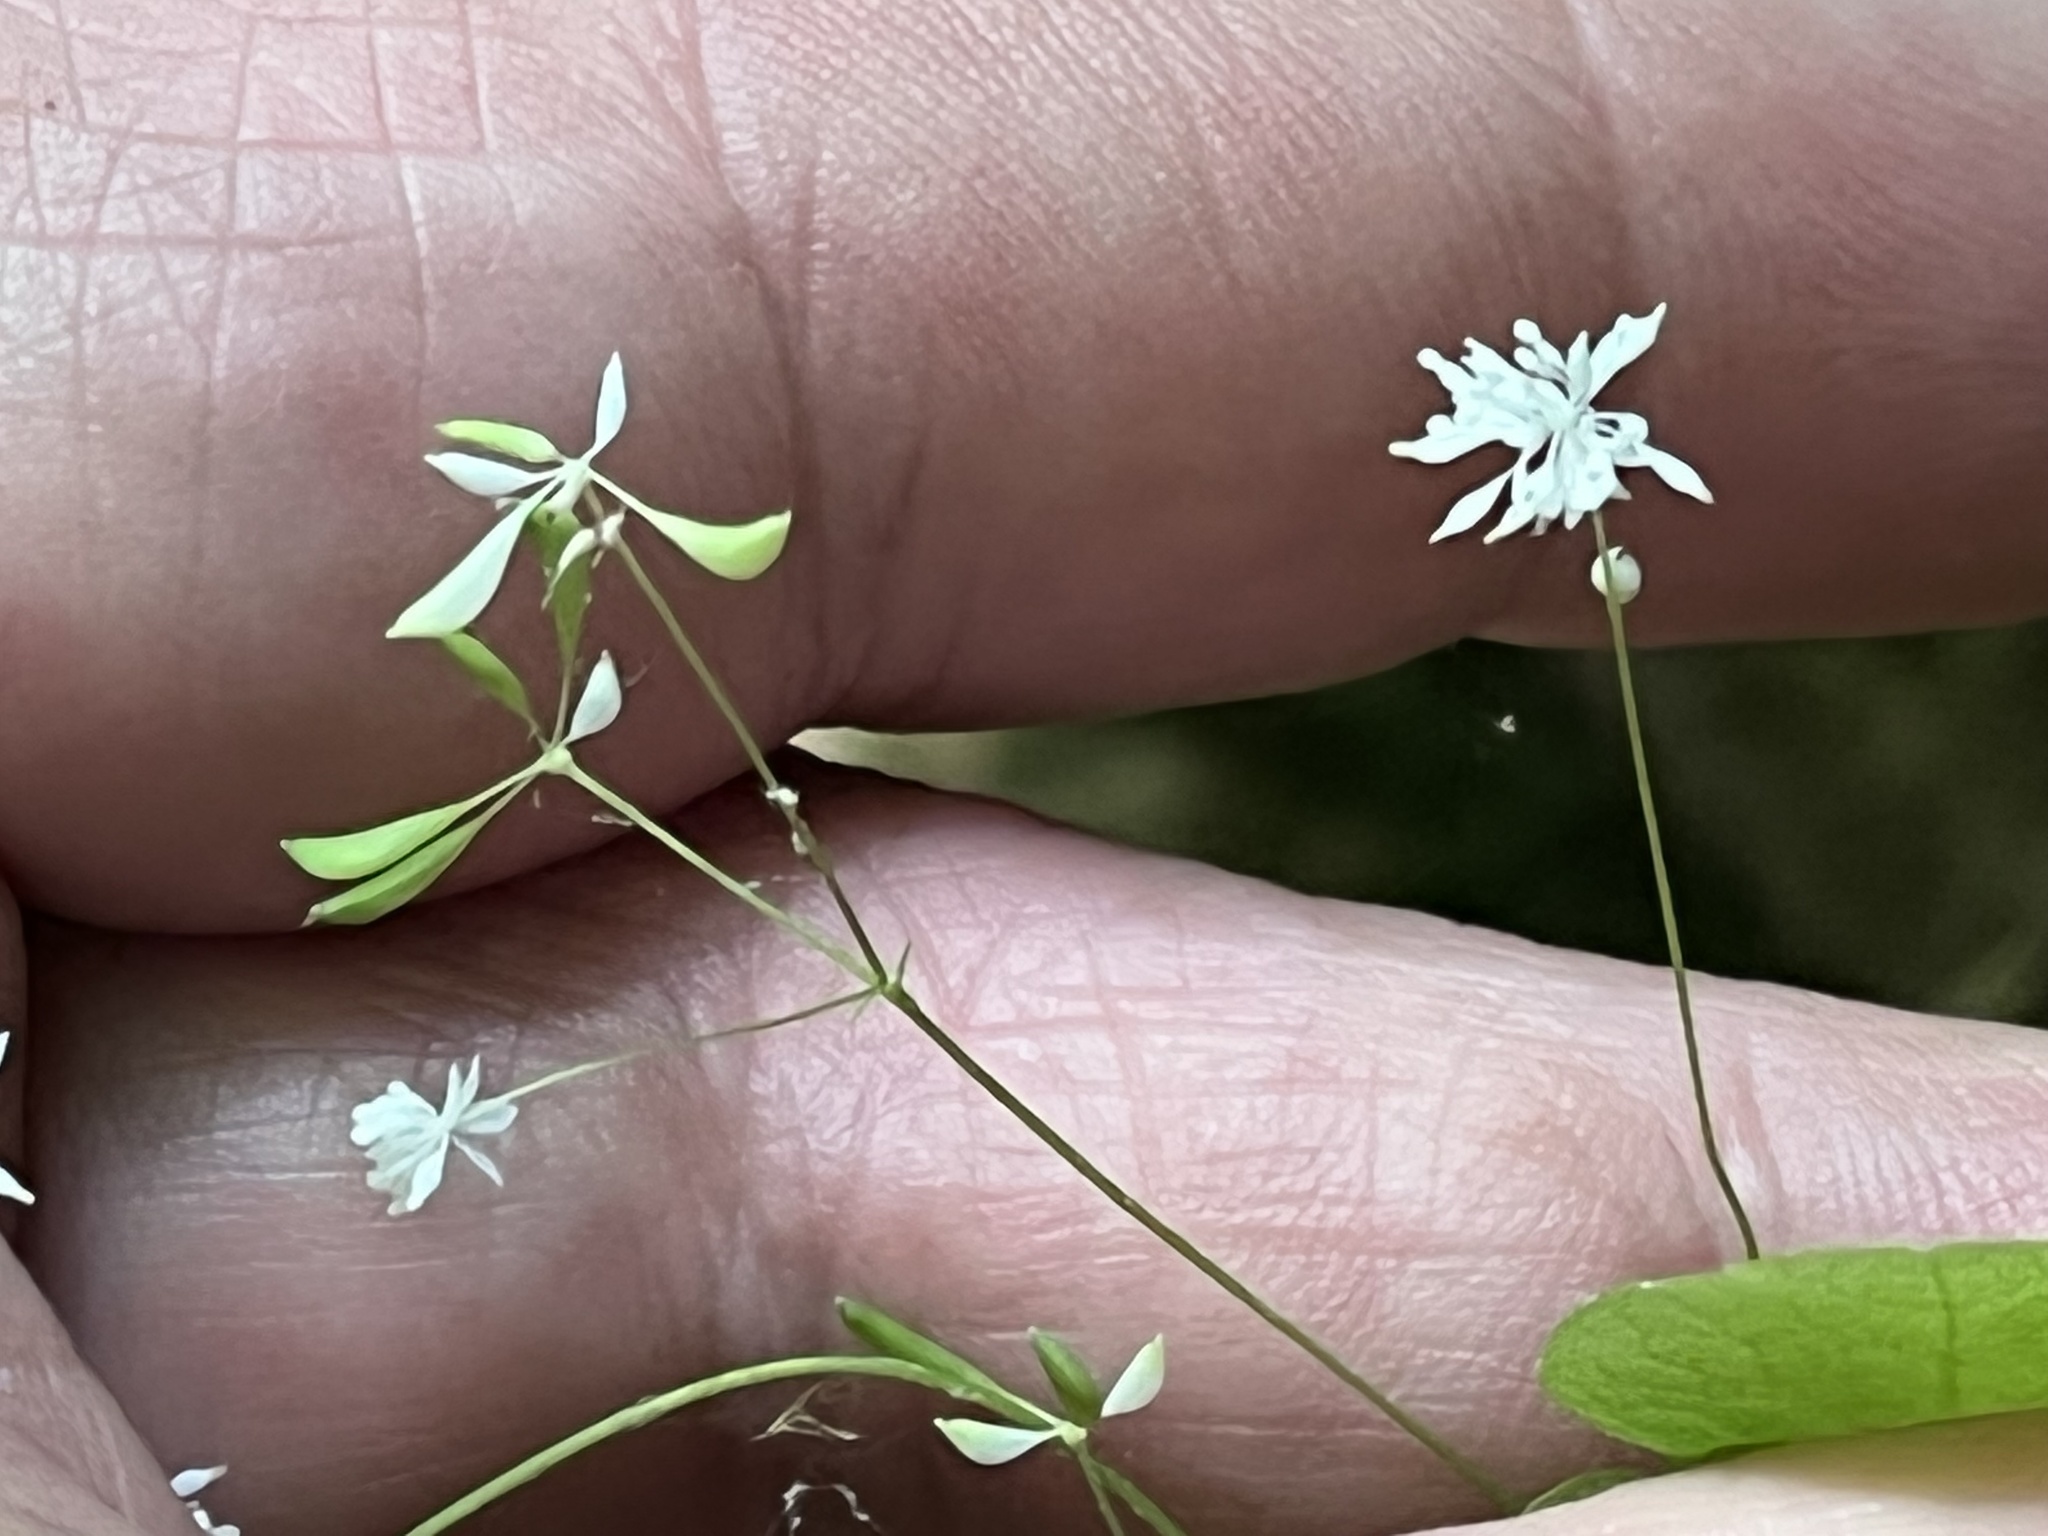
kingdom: Plantae
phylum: Tracheophyta
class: Magnoliopsida
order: Ranunculales
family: Ranunculaceae
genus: Thalictrum
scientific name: Thalictrum mirabile
